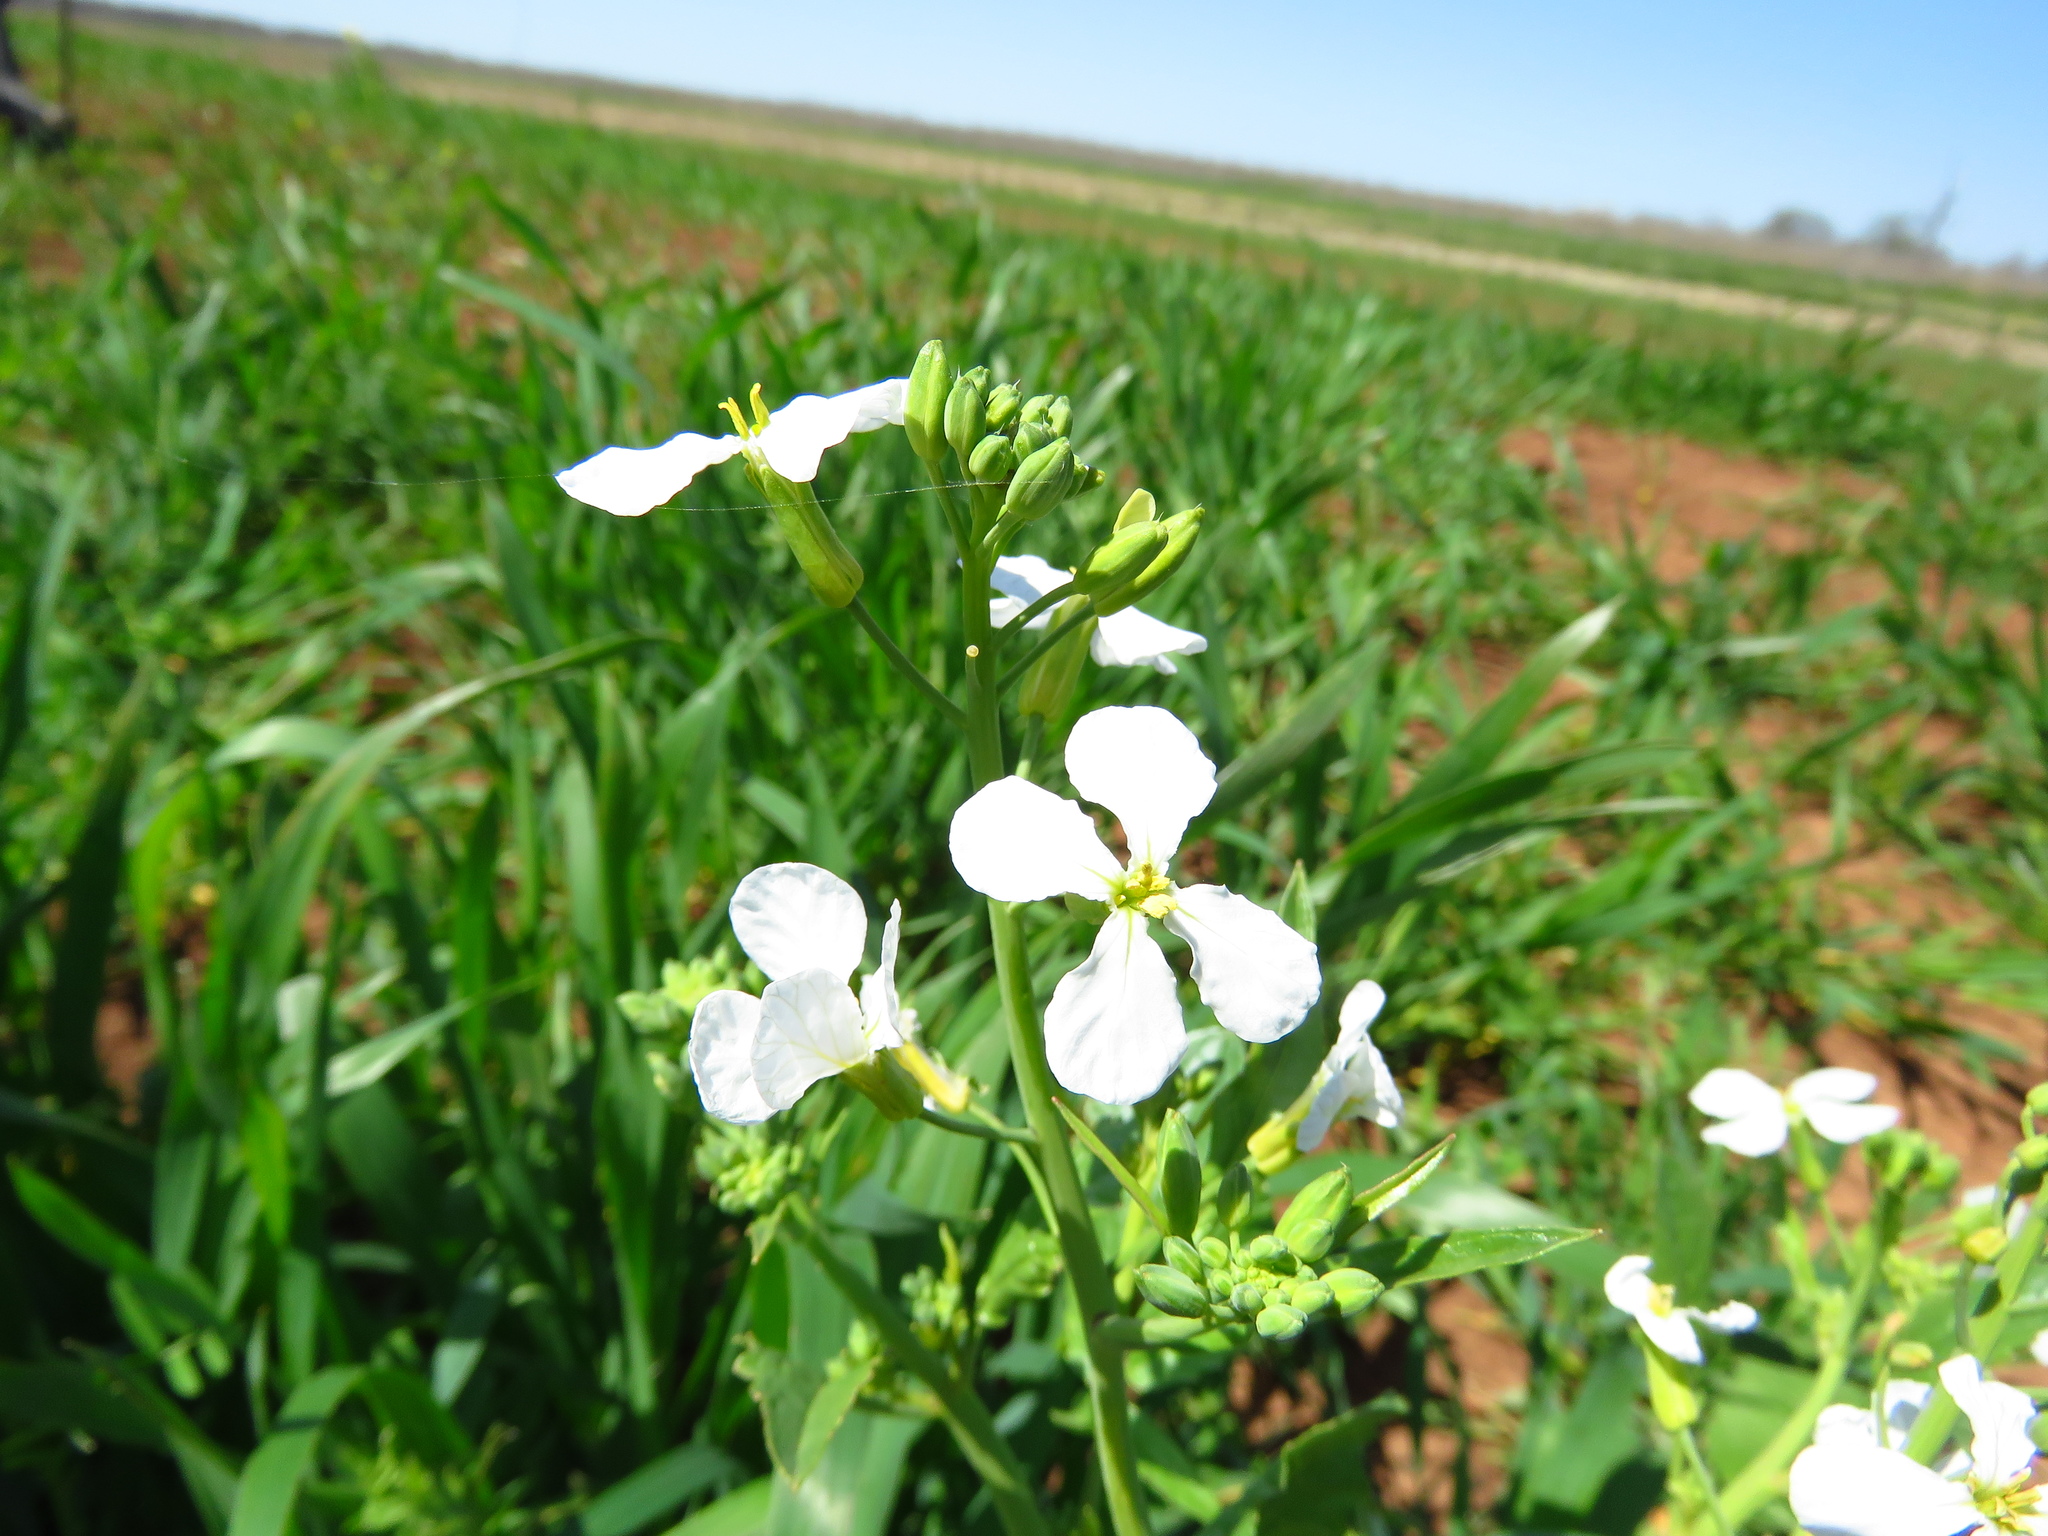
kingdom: Plantae
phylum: Tracheophyta
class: Magnoliopsida
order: Brassicales
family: Brassicaceae
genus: Raphanus
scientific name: Raphanus sativus
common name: Cultivated radish
